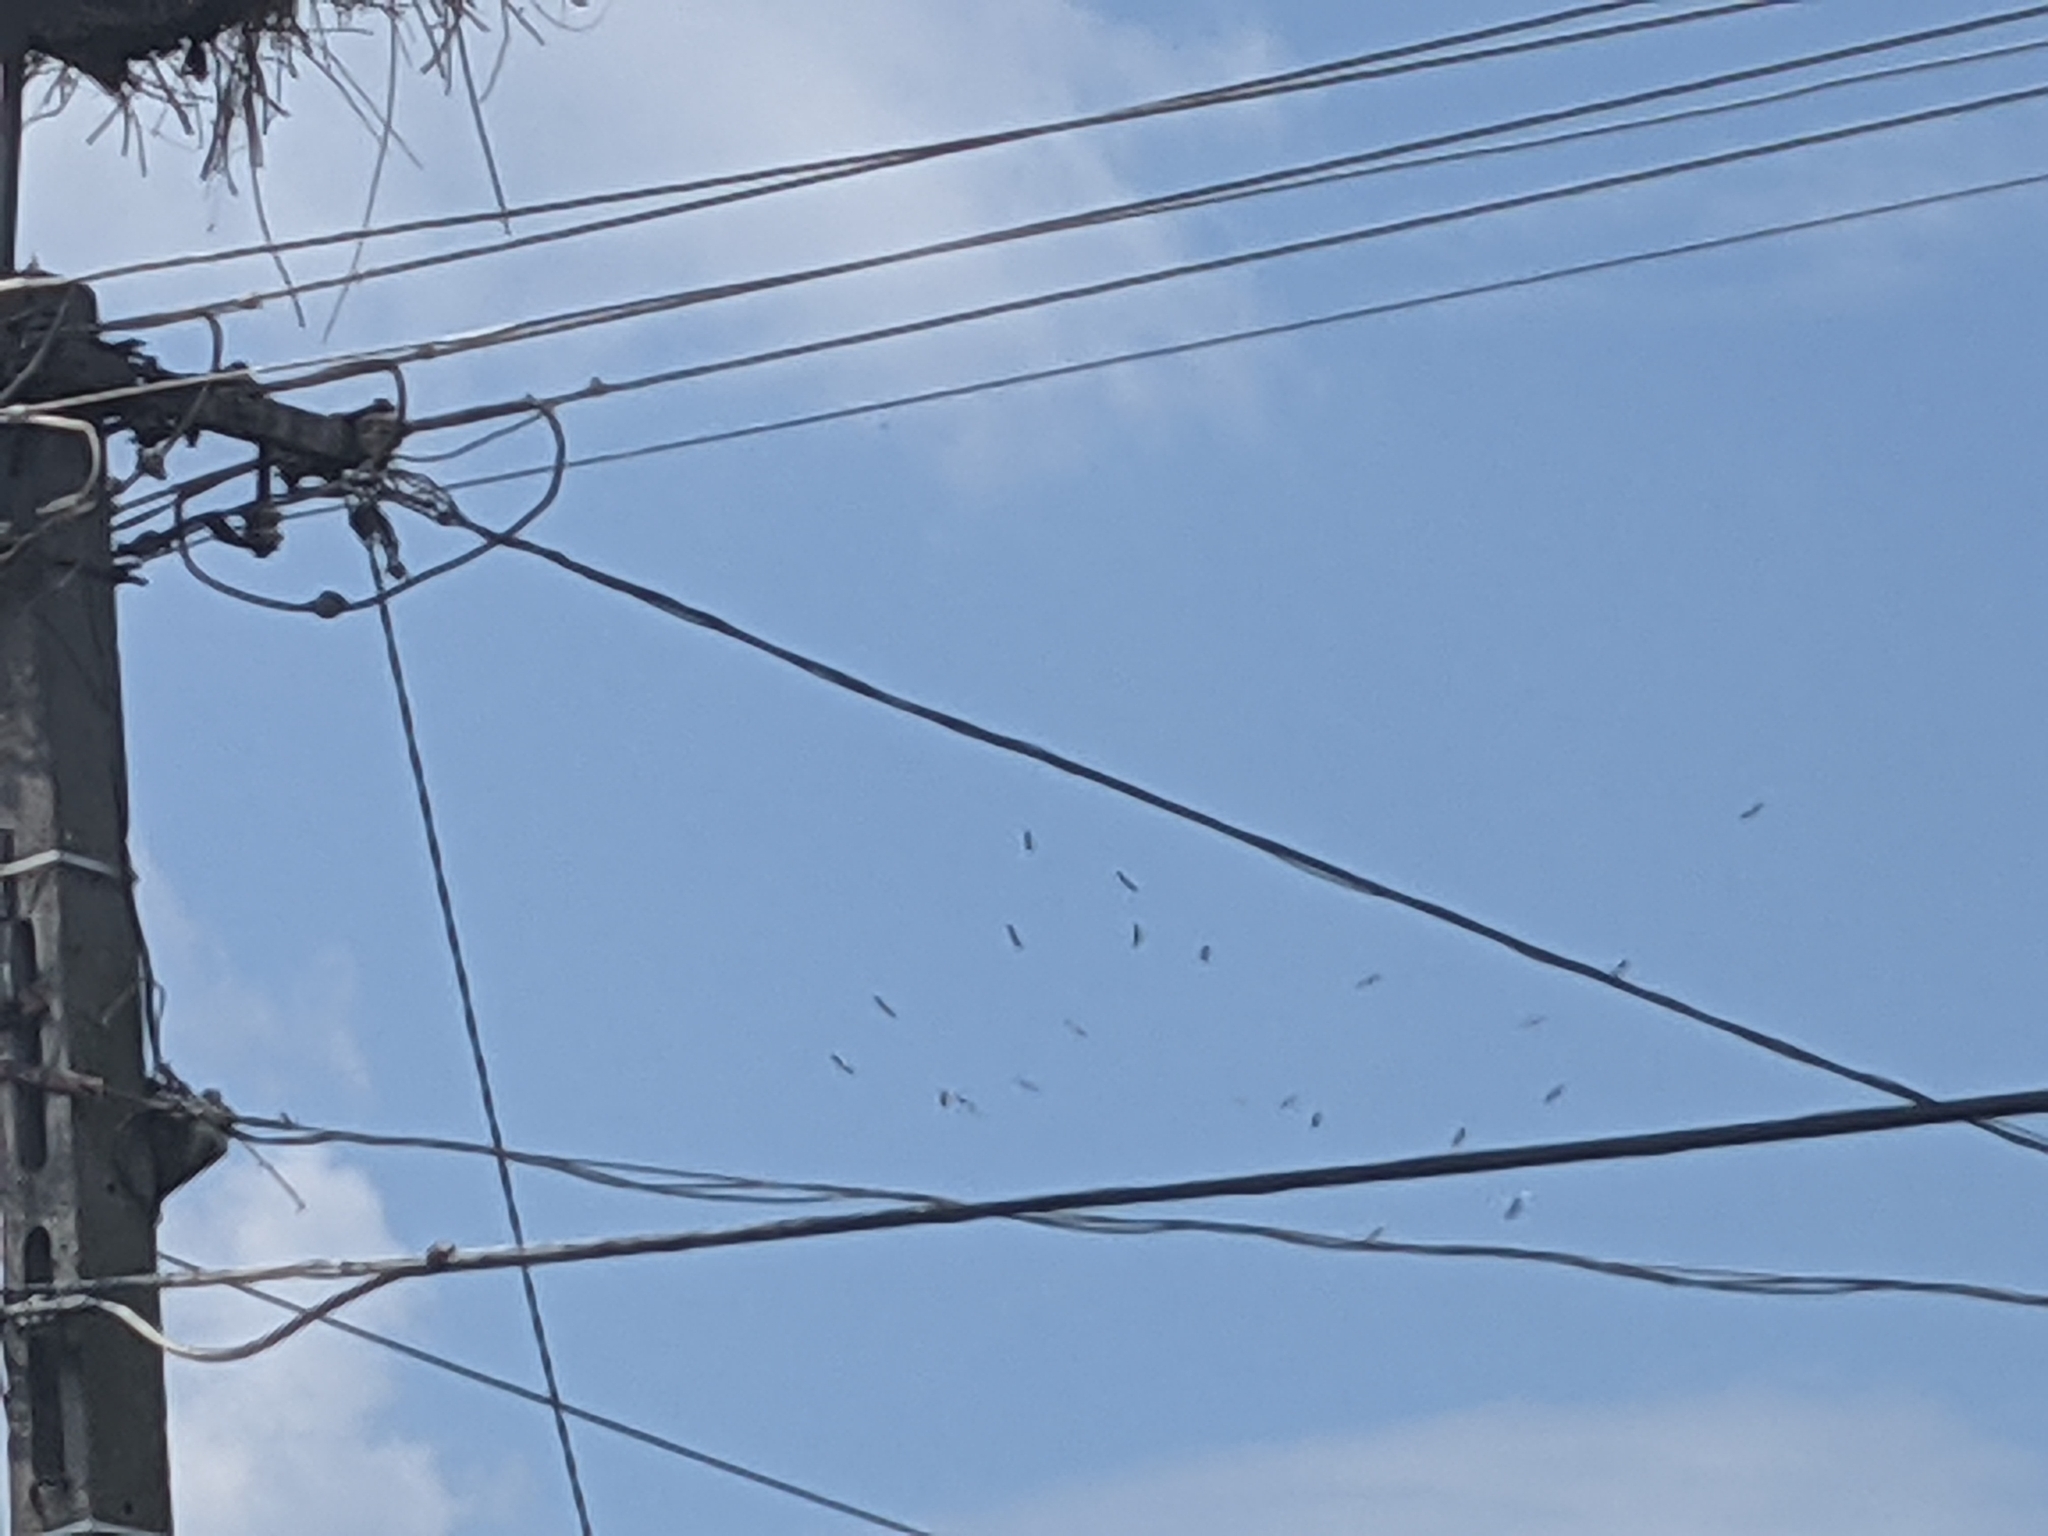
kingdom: Animalia
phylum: Chordata
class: Aves
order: Ciconiiformes
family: Ciconiidae
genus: Ciconia
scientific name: Ciconia ciconia
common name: White stork
